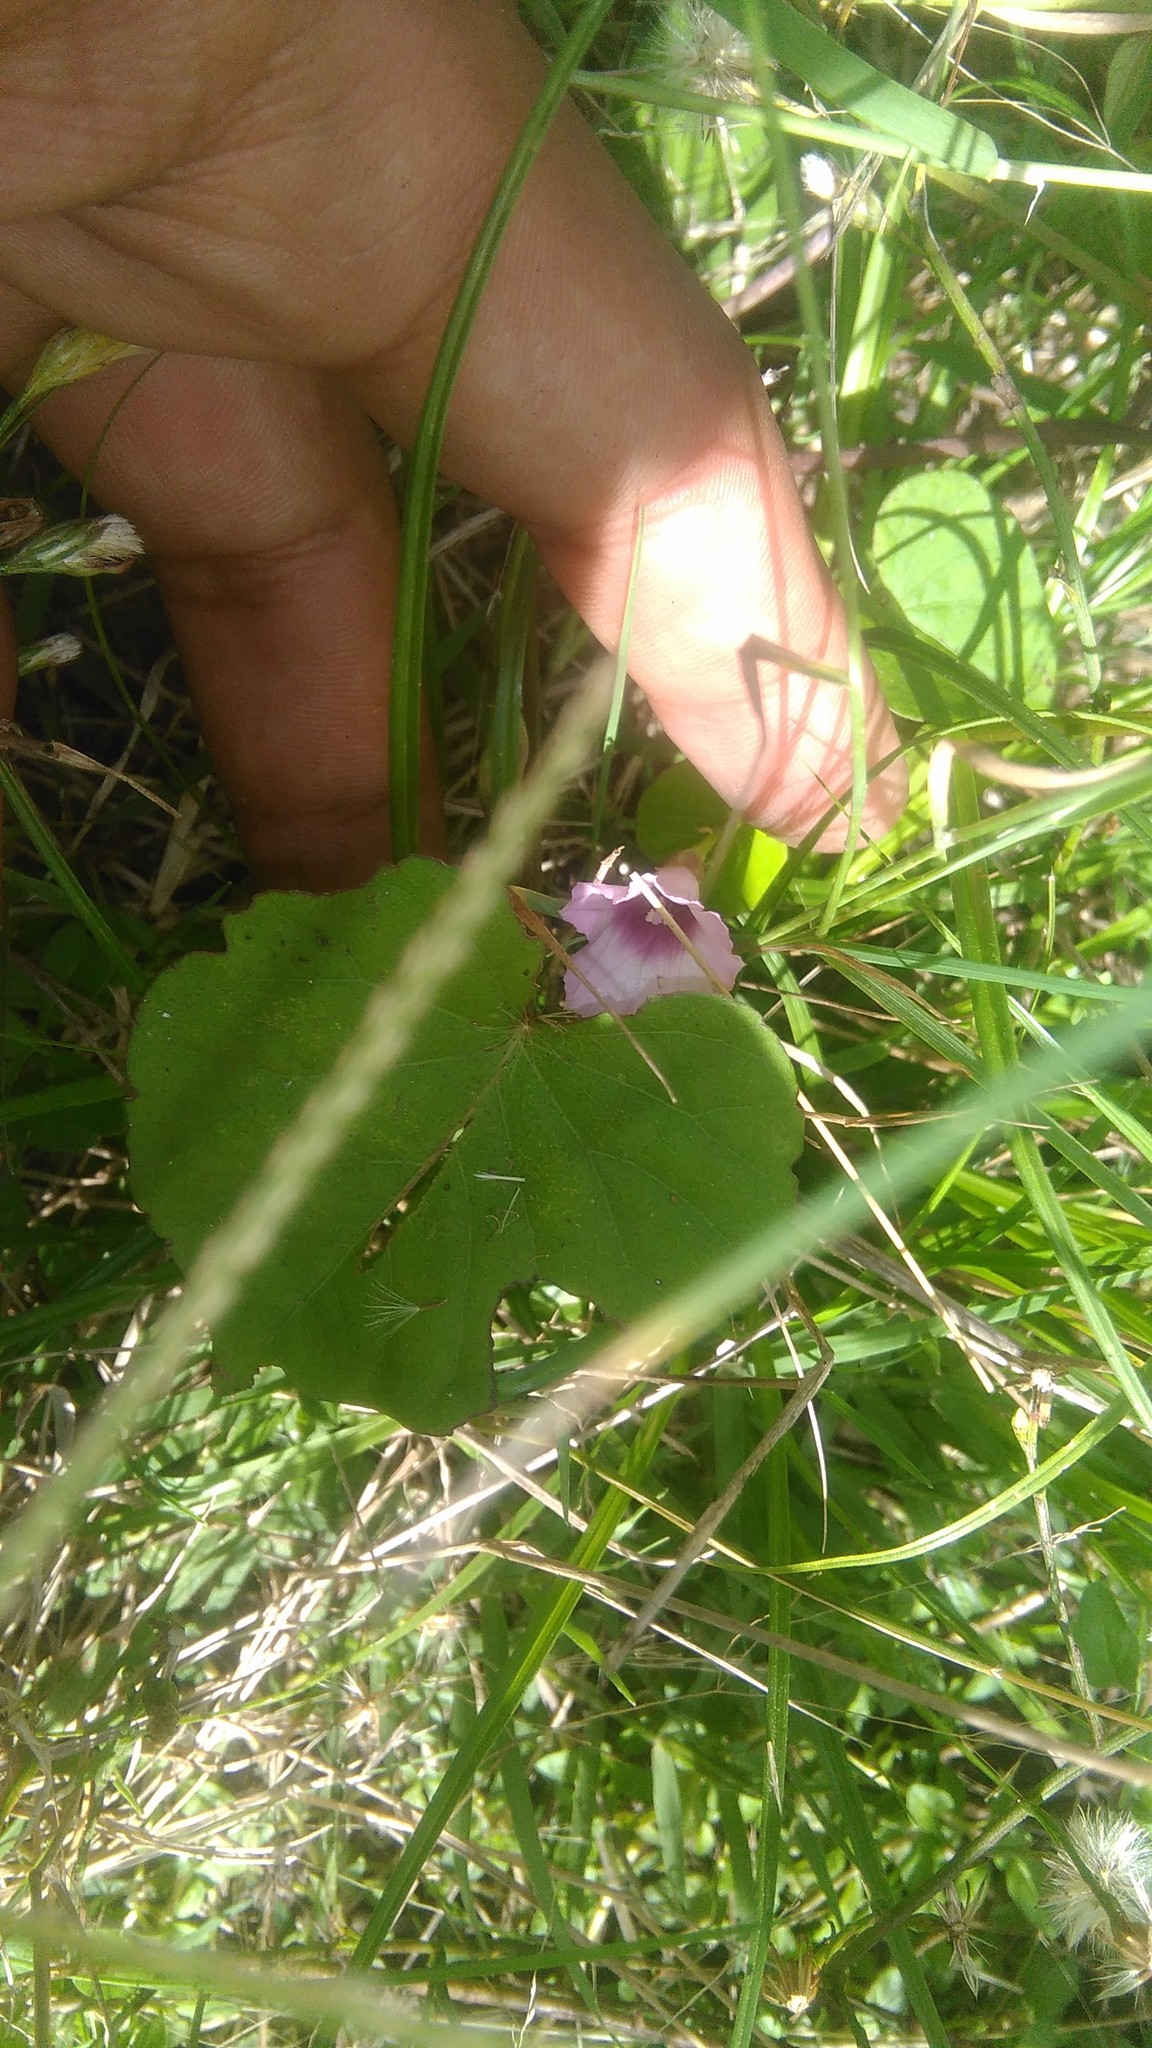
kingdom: Plantae
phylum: Tracheophyta
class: Magnoliopsida
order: Solanales
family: Convolvulaceae
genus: Ipomoea
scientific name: Ipomoea grandifolia
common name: Aiea morning glory
